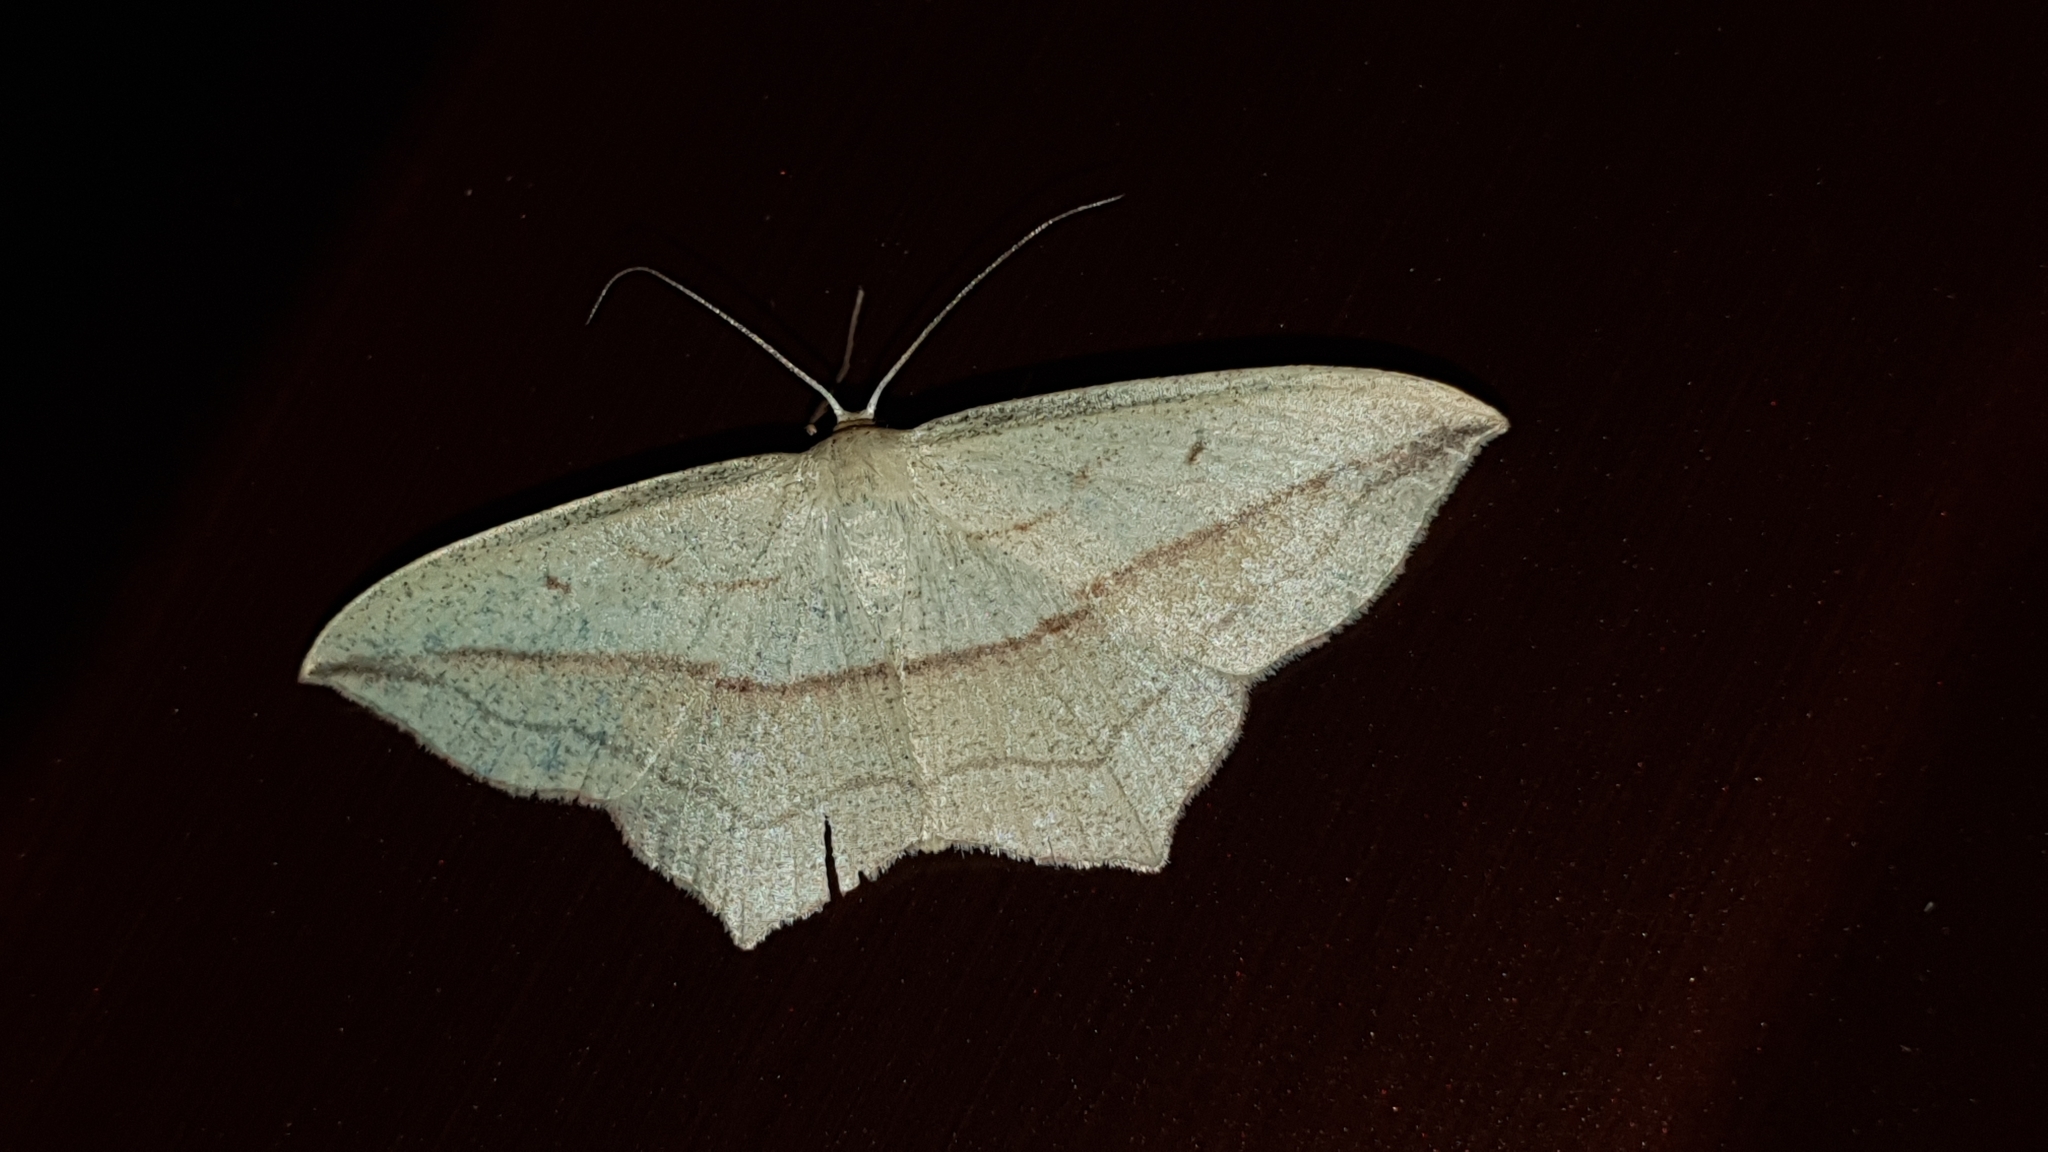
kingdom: Animalia
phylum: Arthropoda
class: Insecta
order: Lepidoptera
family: Geometridae
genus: Timandra
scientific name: Timandra comae
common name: Blood-vein
